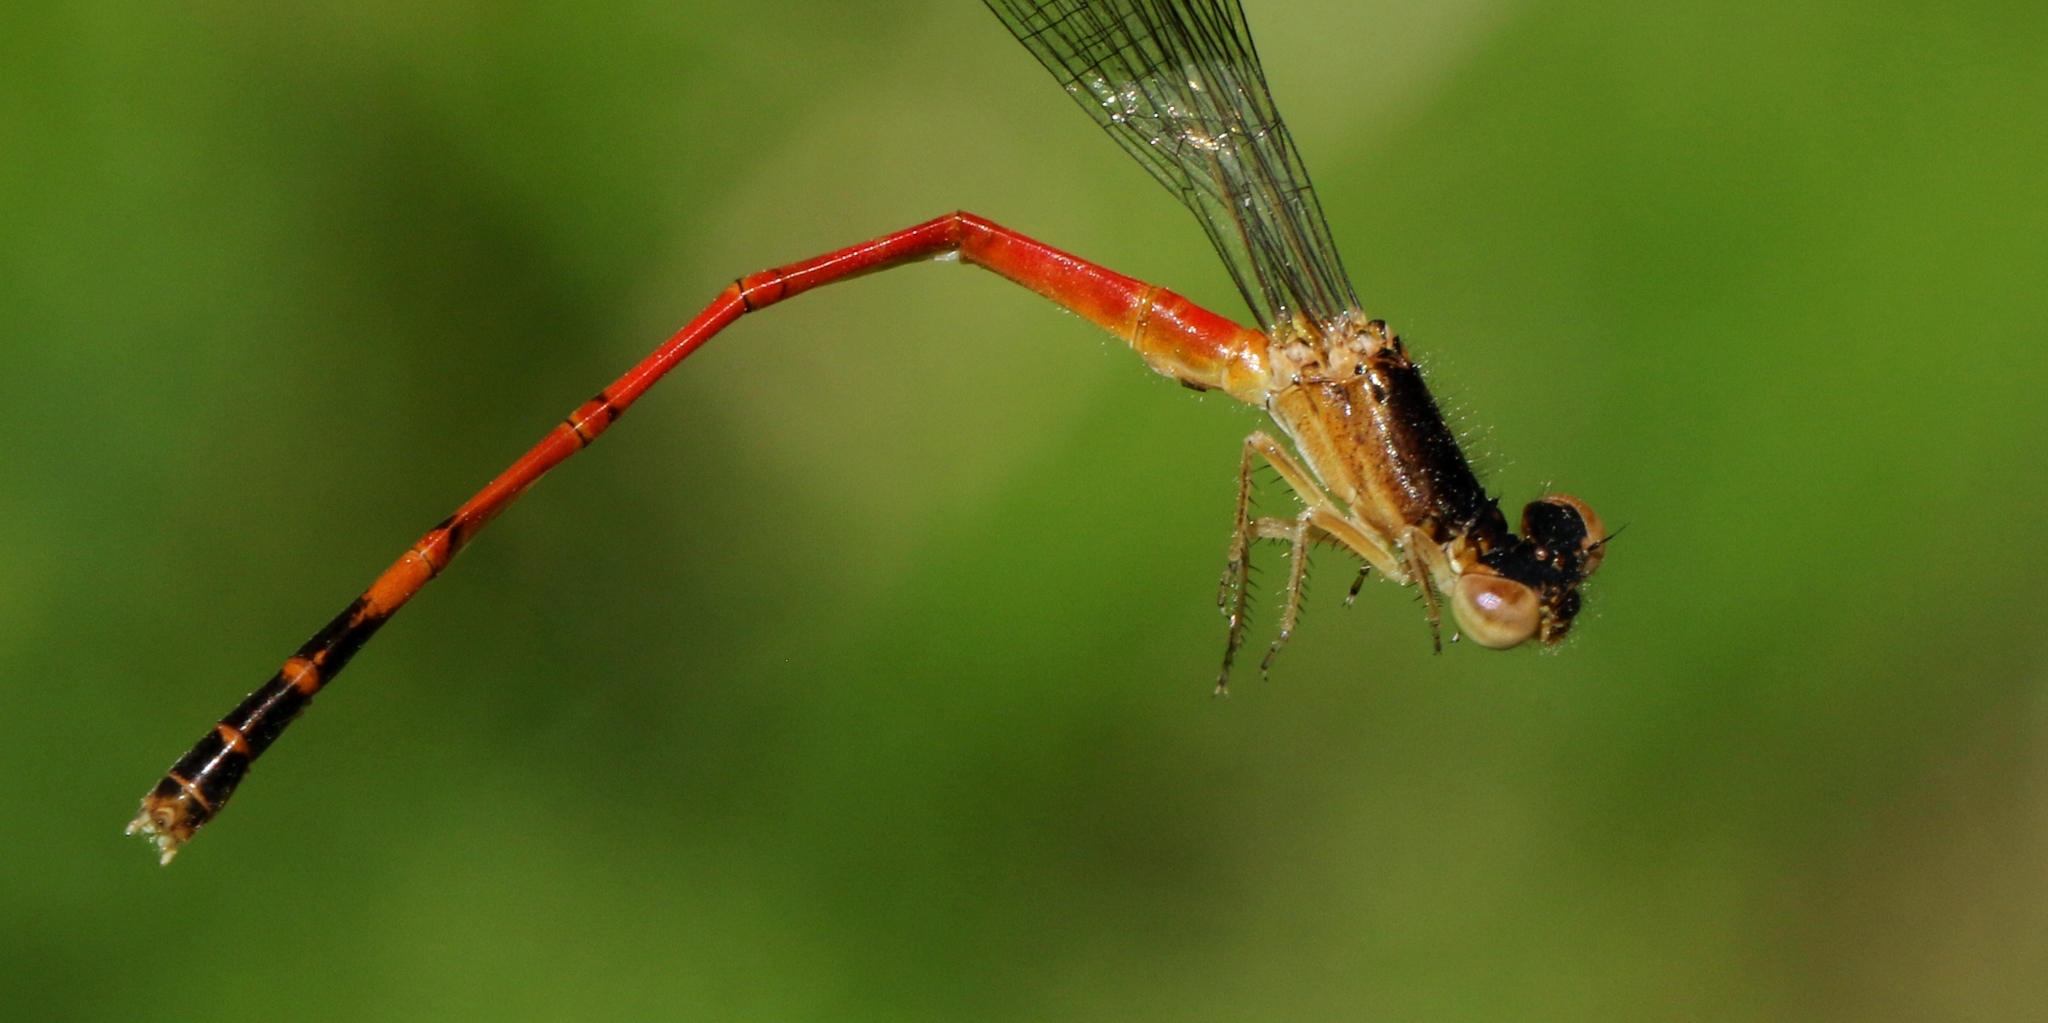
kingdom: Animalia
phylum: Arthropoda
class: Insecta
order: Odonata
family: Coenagrionidae
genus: Amphiagrion
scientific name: Amphiagrion saucium
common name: Eastern red damsel
